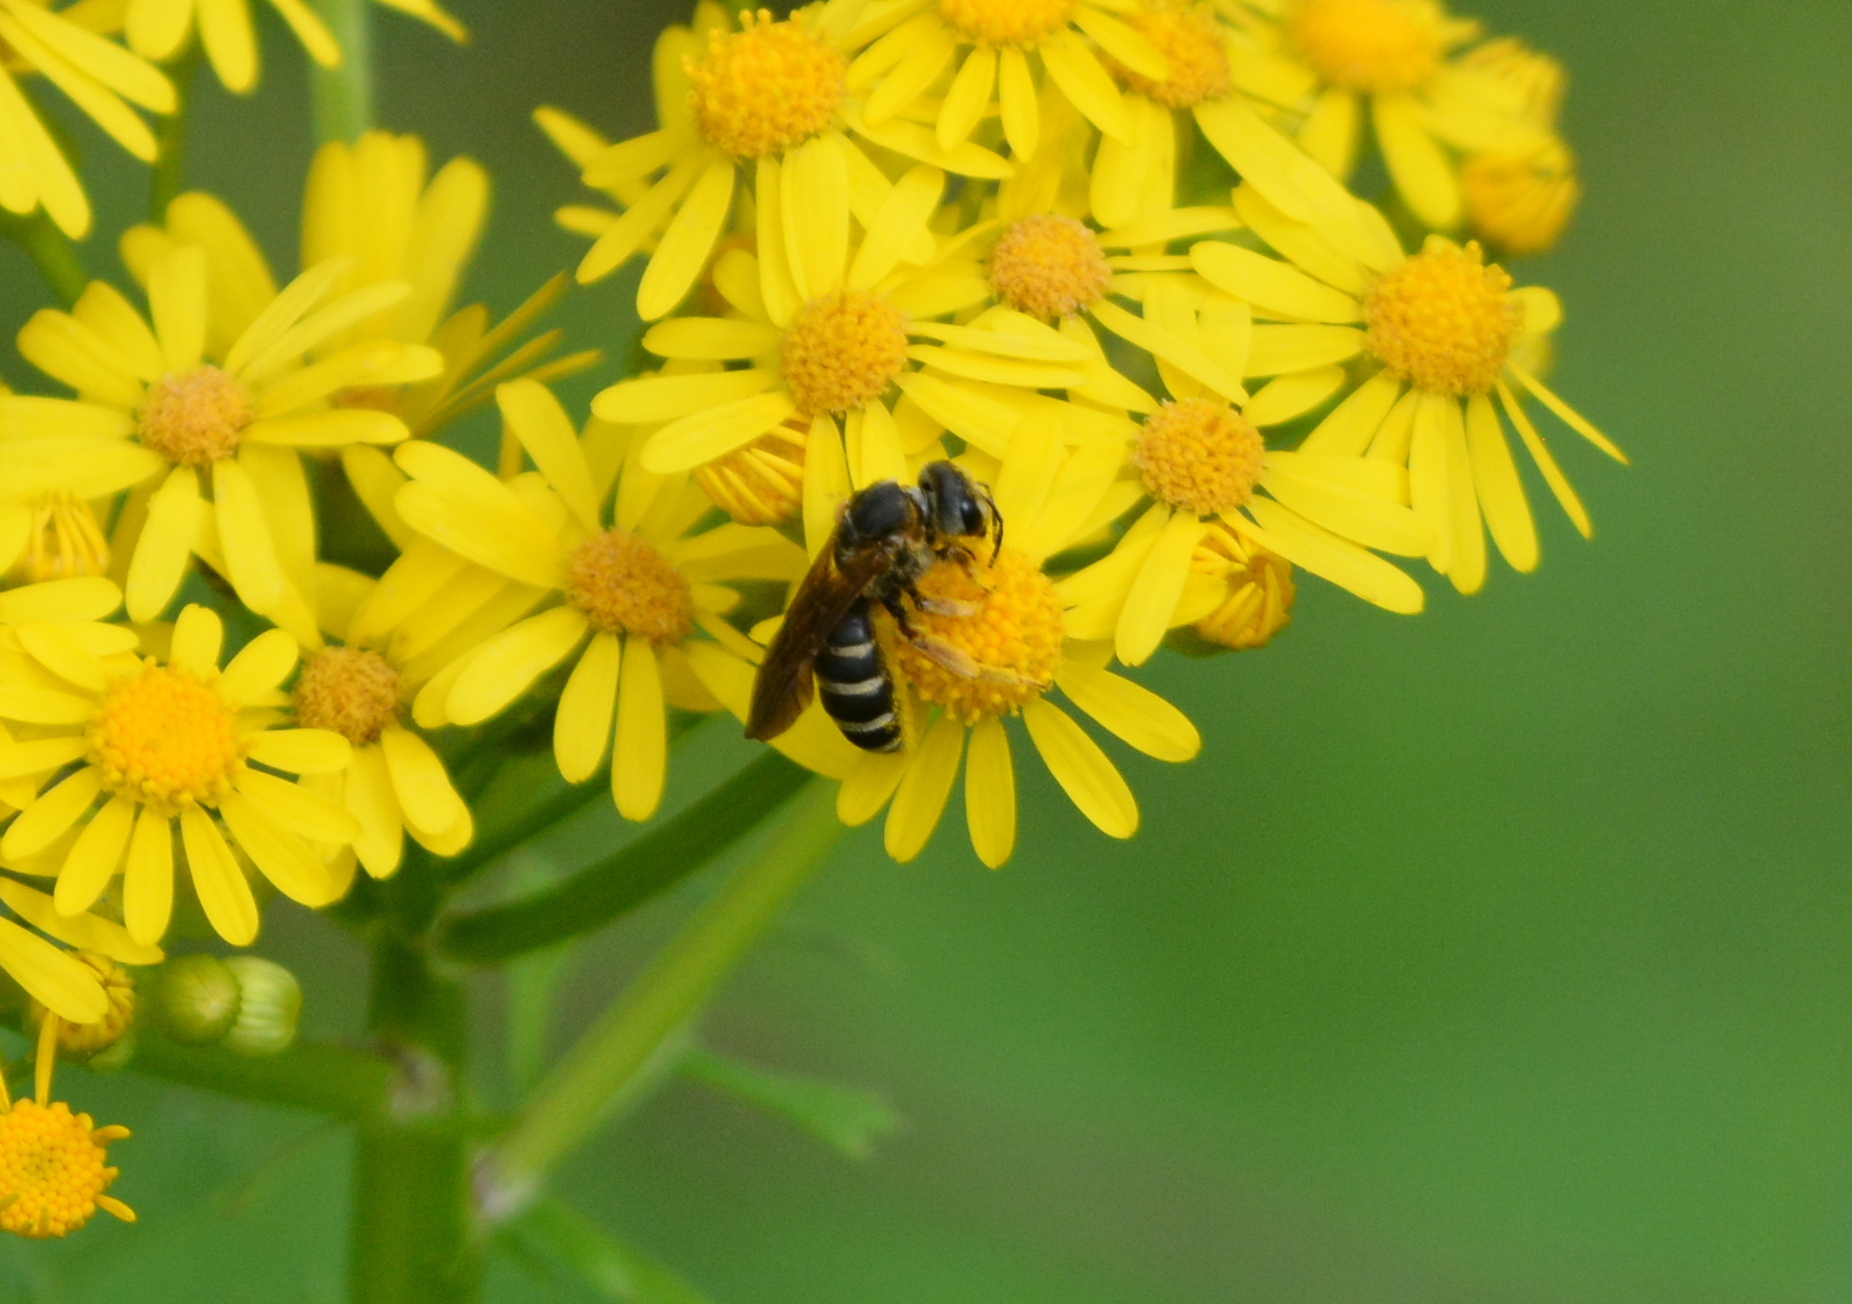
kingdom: Animalia
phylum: Arthropoda
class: Insecta
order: Hymenoptera
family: Halictidae
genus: Halictus
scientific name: Halictus parallelus
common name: Parallel-striped sweat bee
